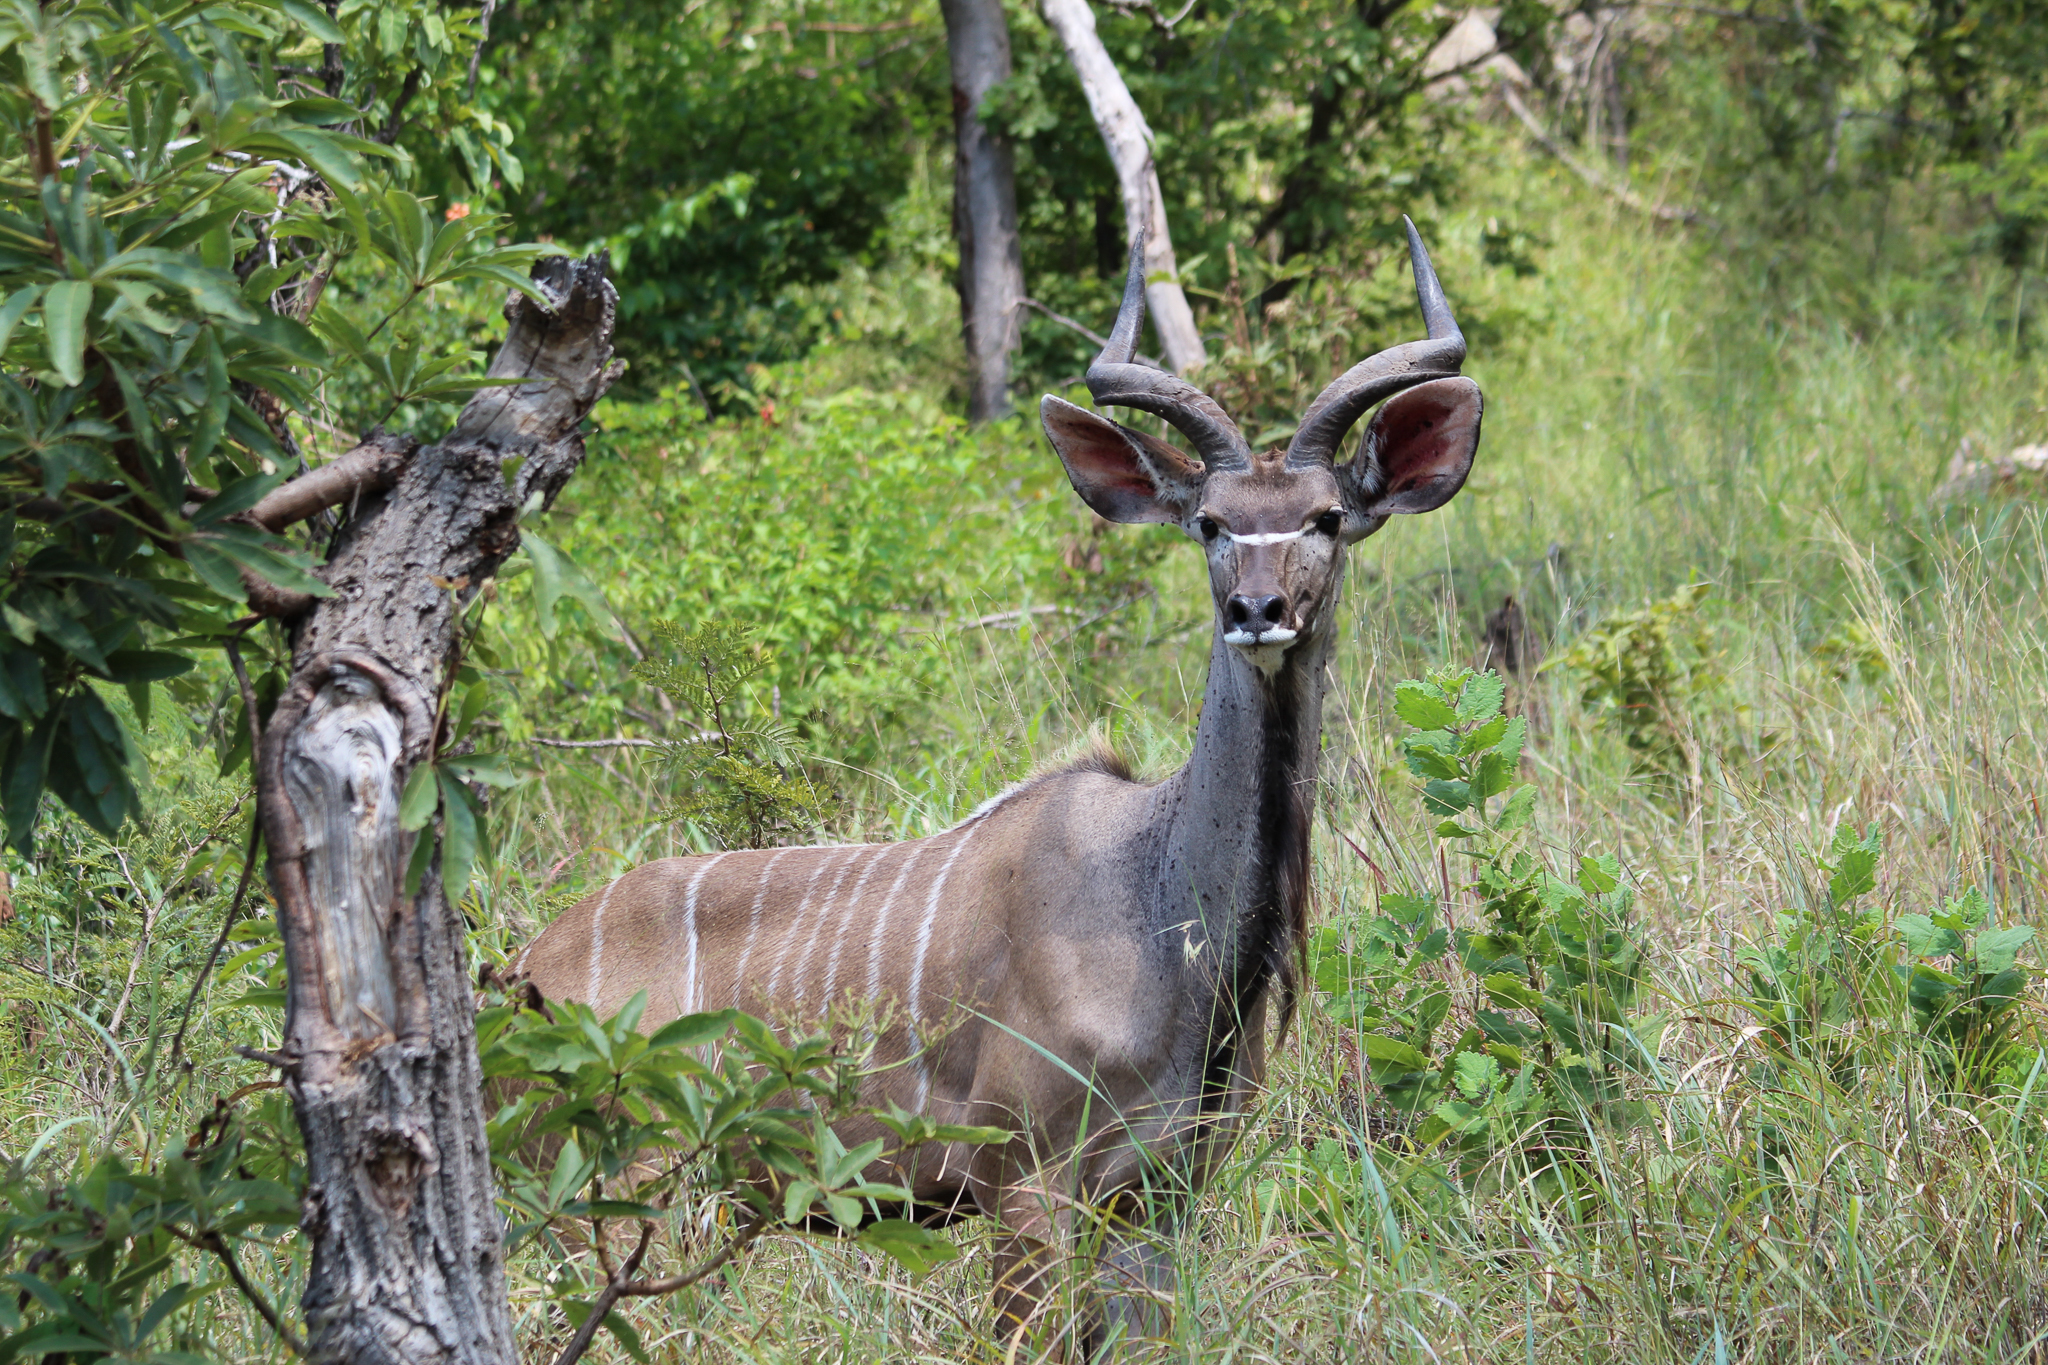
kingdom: Animalia
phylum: Chordata
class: Mammalia
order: Artiodactyla
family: Bovidae
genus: Tragelaphus
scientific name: Tragelaphus strepsiceros
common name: Greater kudu
